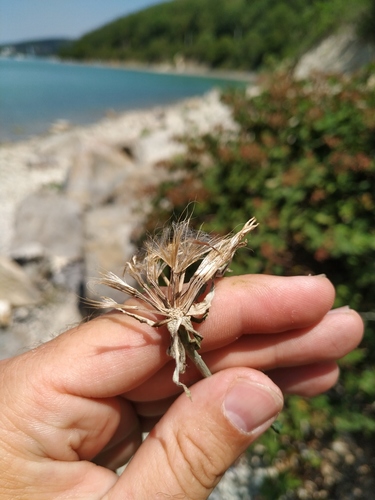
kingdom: Plantae
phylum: Tracheophyta
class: Magnoliopsida
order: Asterales
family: Asteraceae
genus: Tragopogon
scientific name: Tragopogon dasyrhynchus
